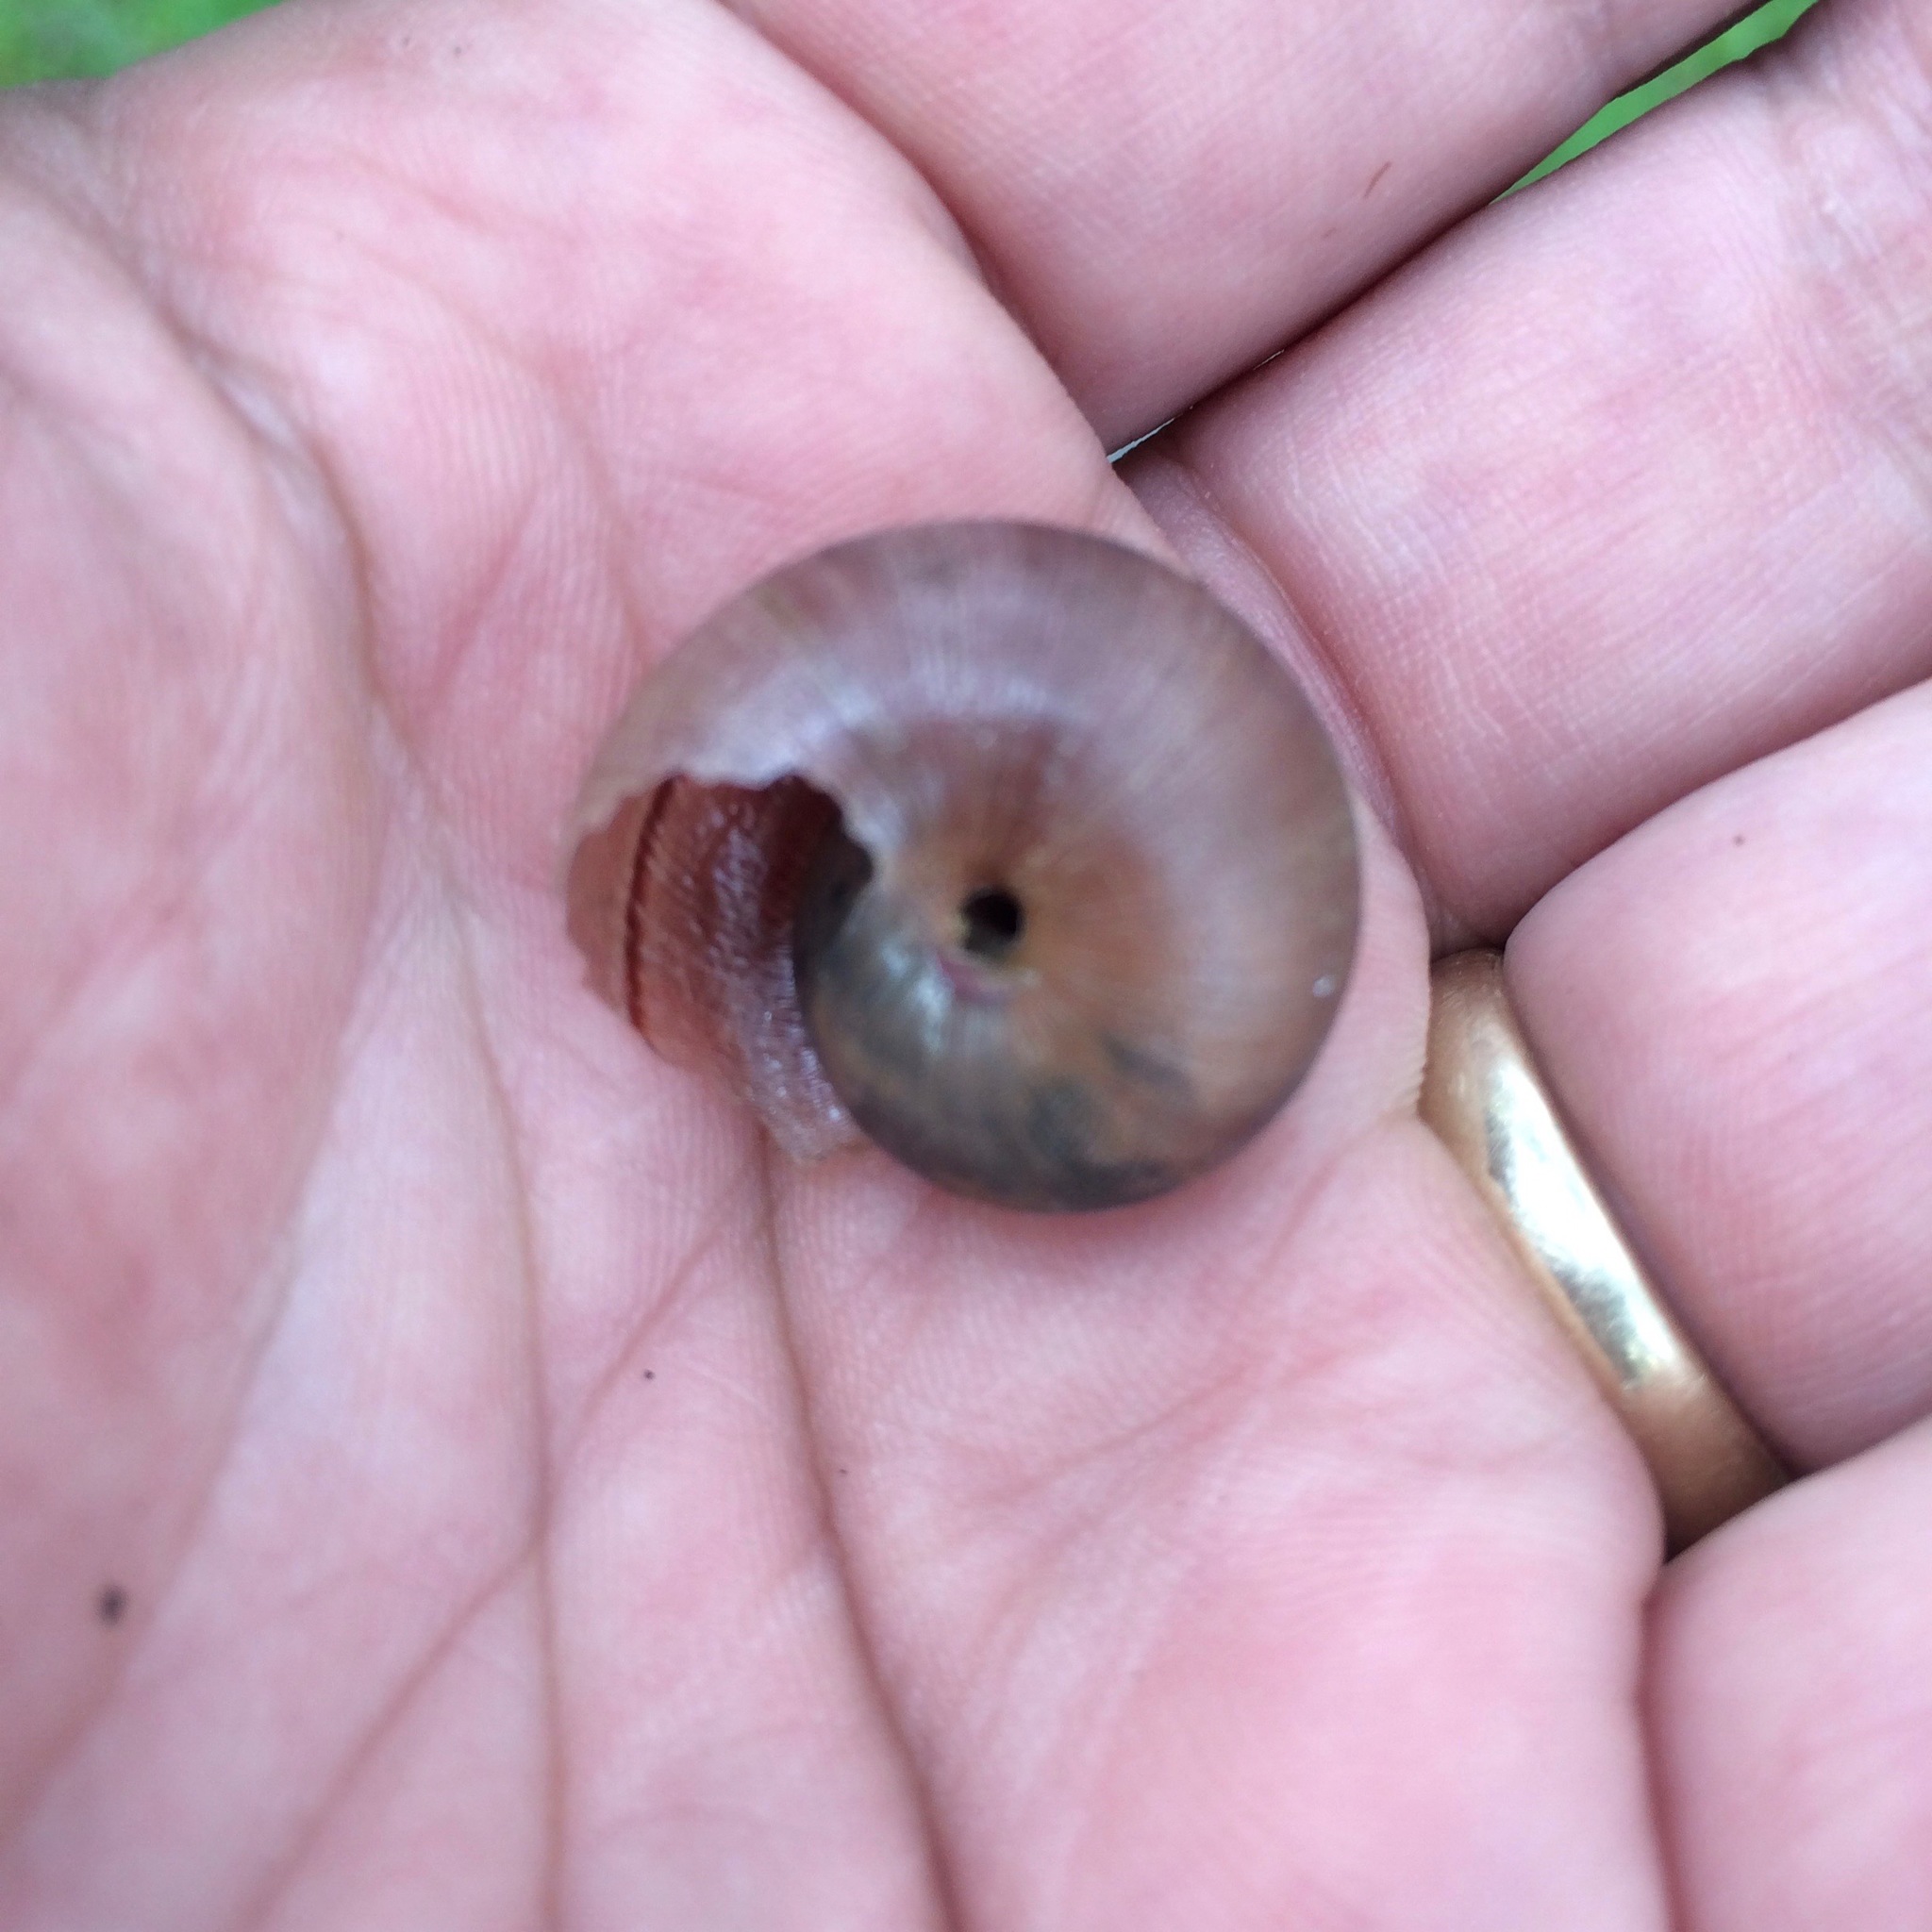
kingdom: Animalia
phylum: Mollusca
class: Gastropoda
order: Stylommatophora
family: Xanthonychidae
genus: Helminthoglypta
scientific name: Helminthoglypta nickliniana
